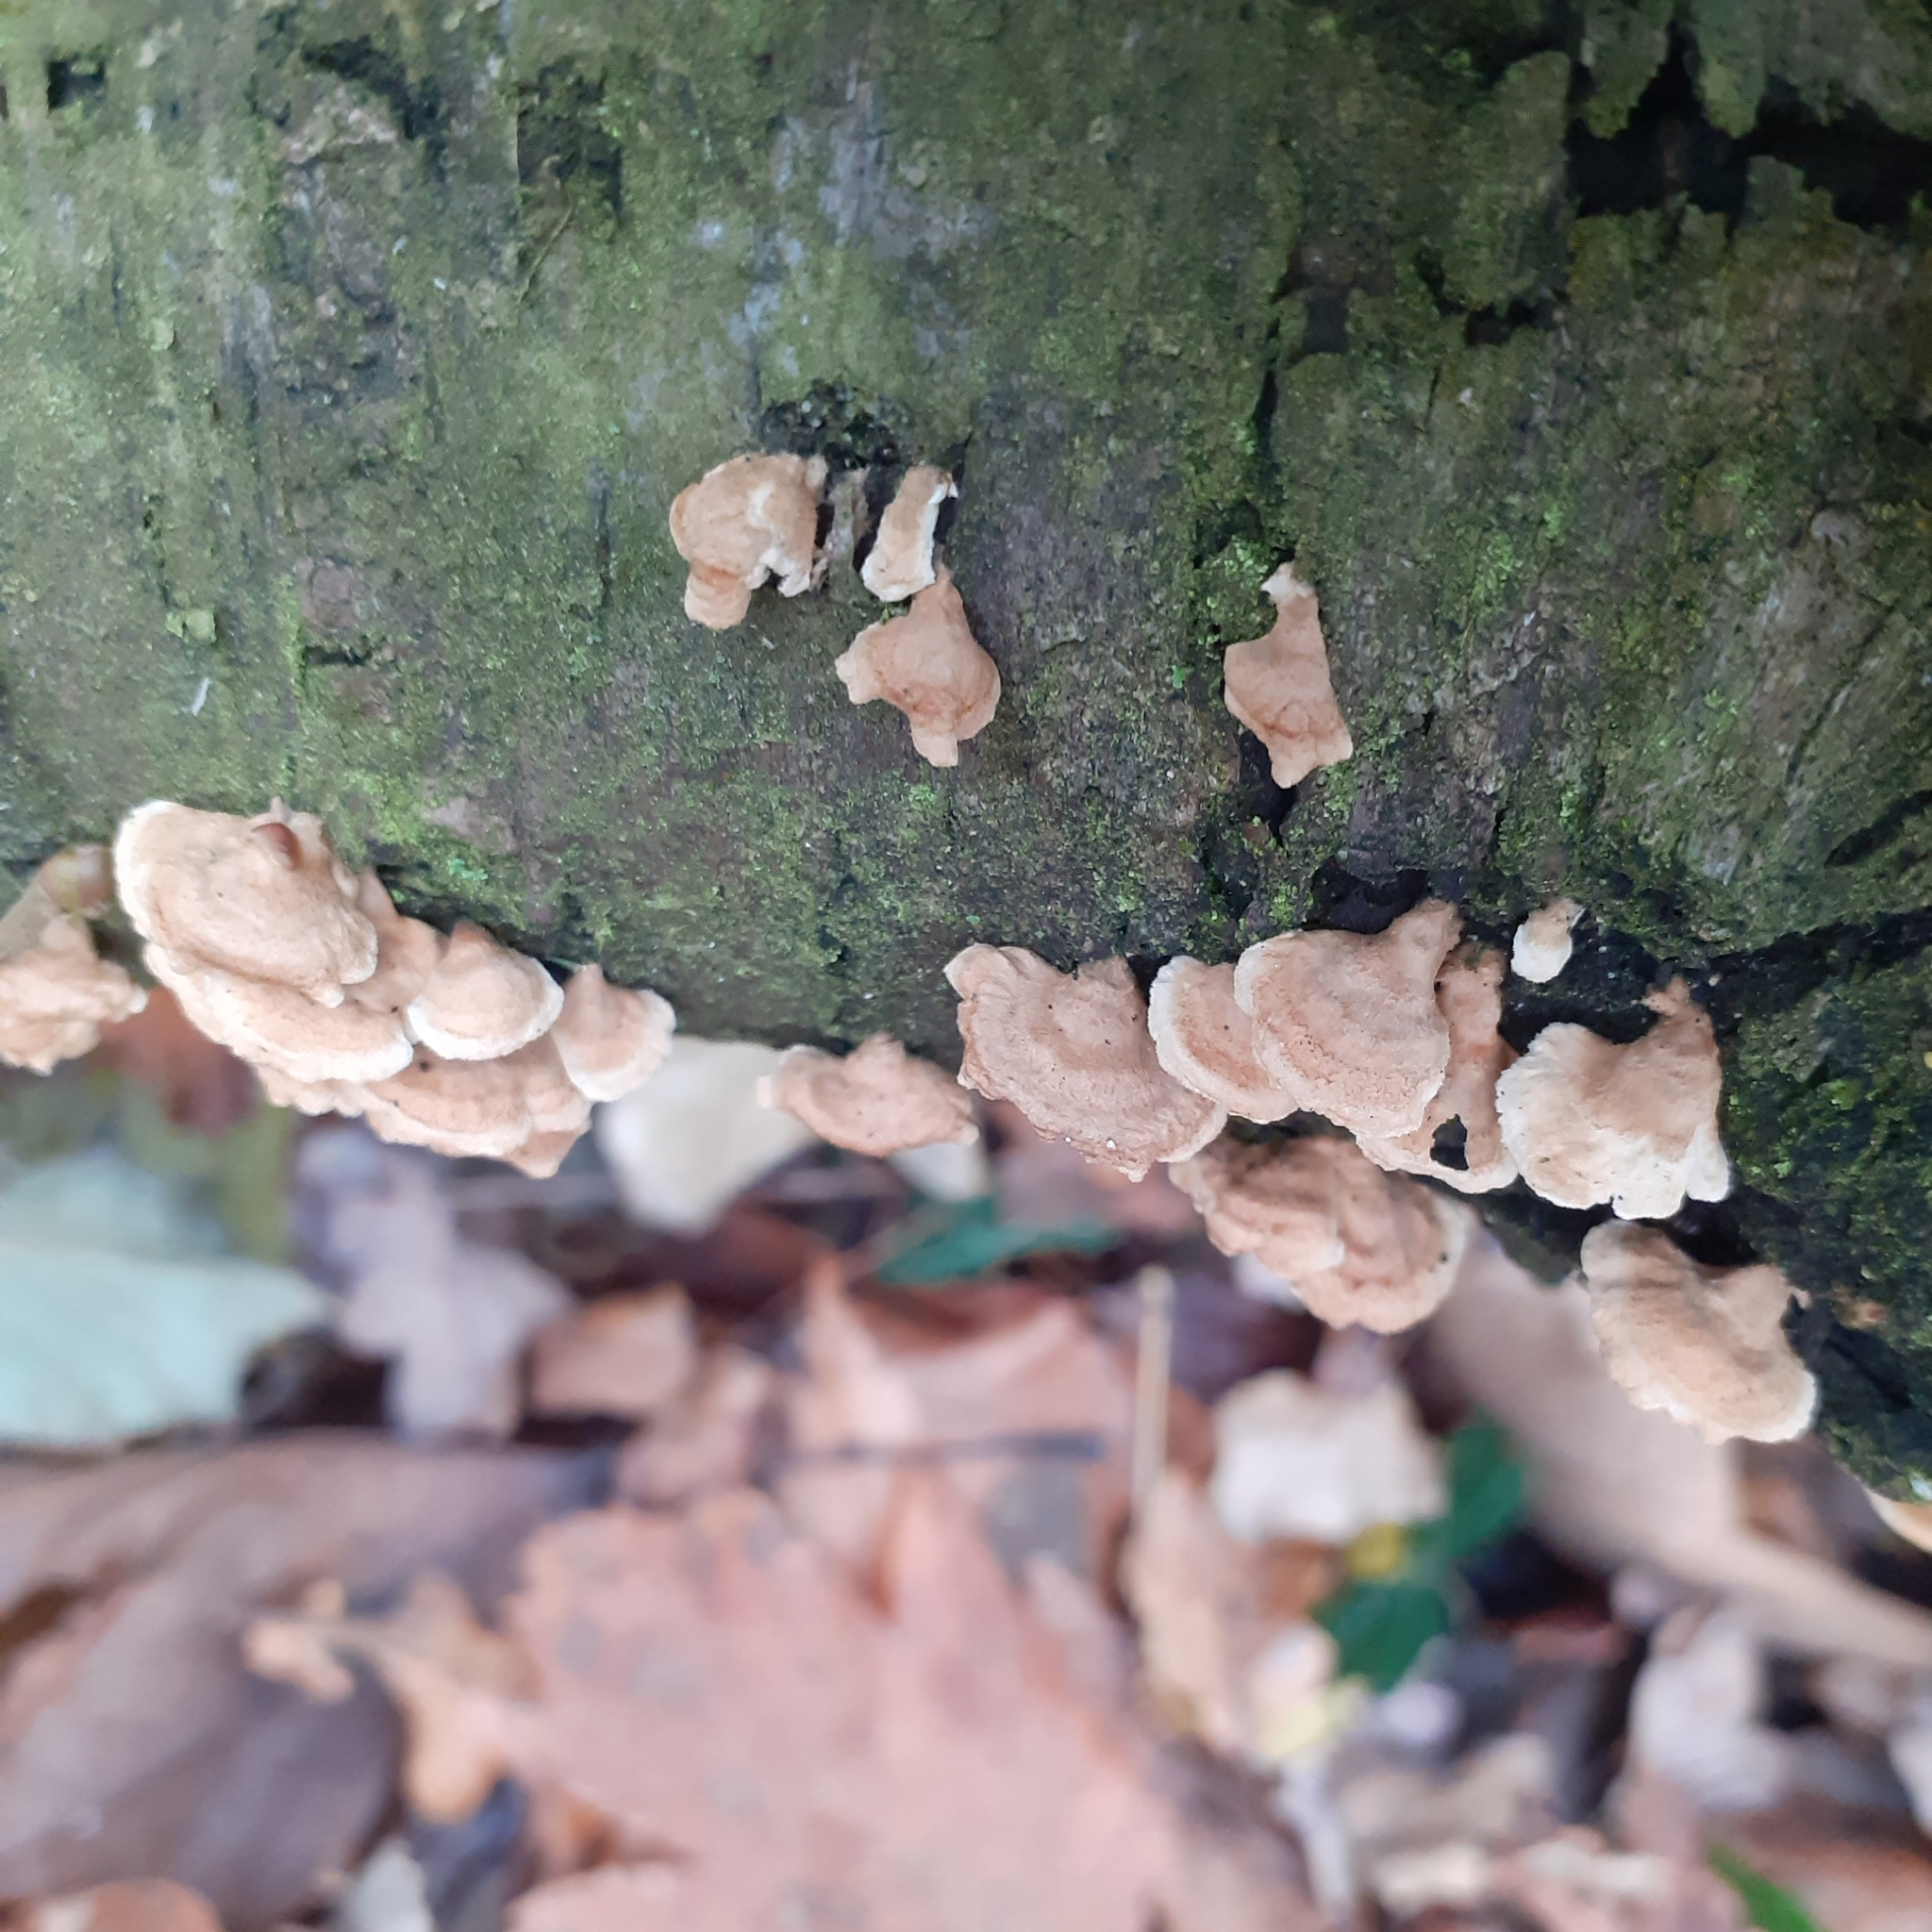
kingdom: Fungi
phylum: Basidiomycota
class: Agaricomycetes
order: Agaricales
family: Mycenaceae
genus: Panellus
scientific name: Panellus stipticus
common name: Bitter oysterling
